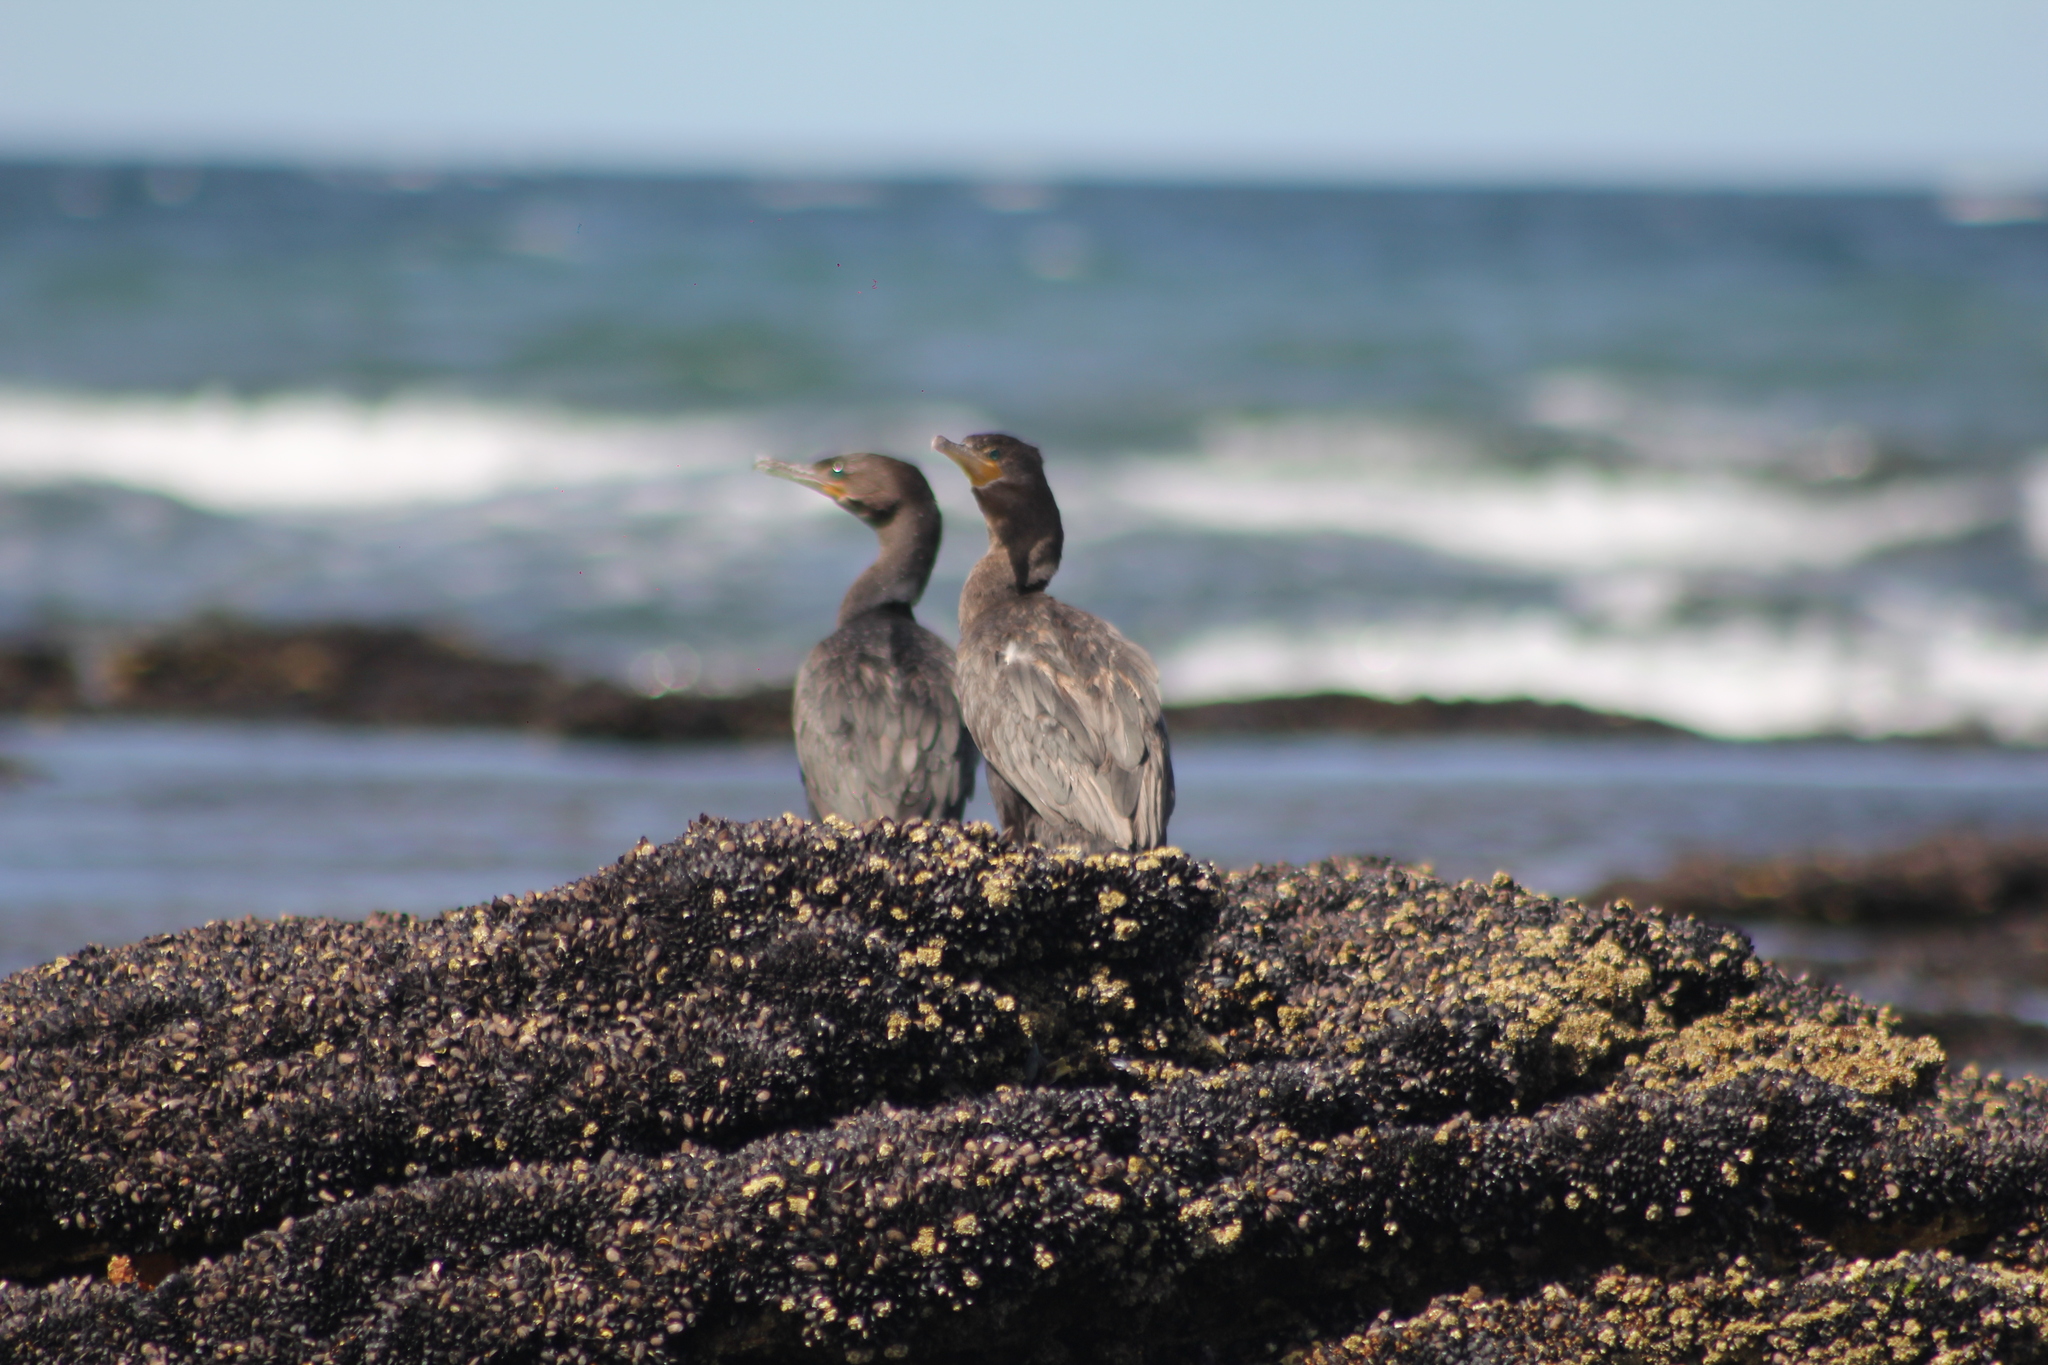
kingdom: Animalia
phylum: Chordata
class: Aves
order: Suliformes
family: Phalacrocoracidae
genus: Phalacrocorax
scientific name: Phalacrocorax brasilianus
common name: Neotropic cormorant
